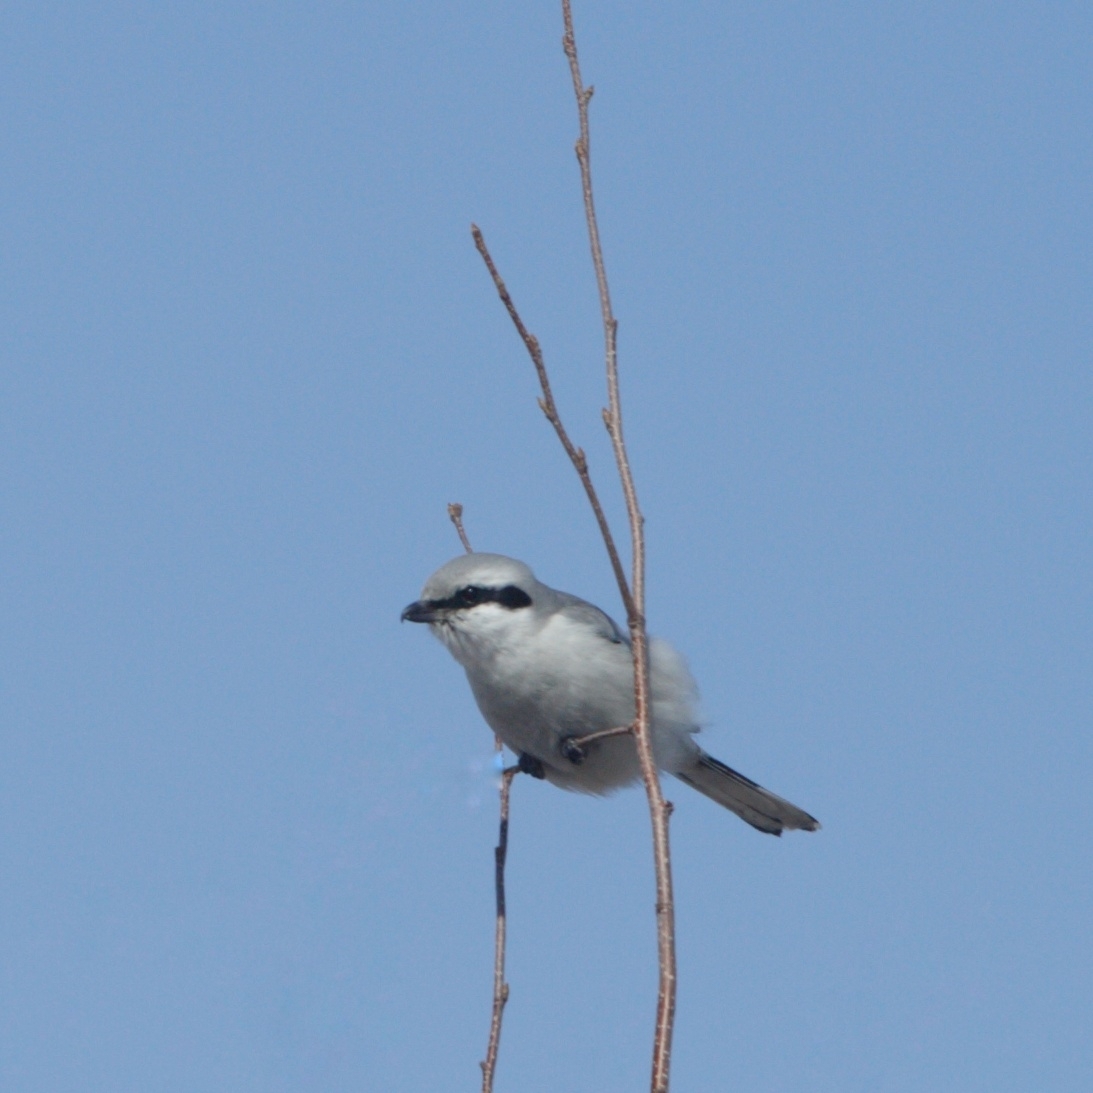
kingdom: Animalia
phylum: Chordata
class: Aves
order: Passeriformes
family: Laniidae
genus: Lanius
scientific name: Lanius excubitor
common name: Great grey shrike
